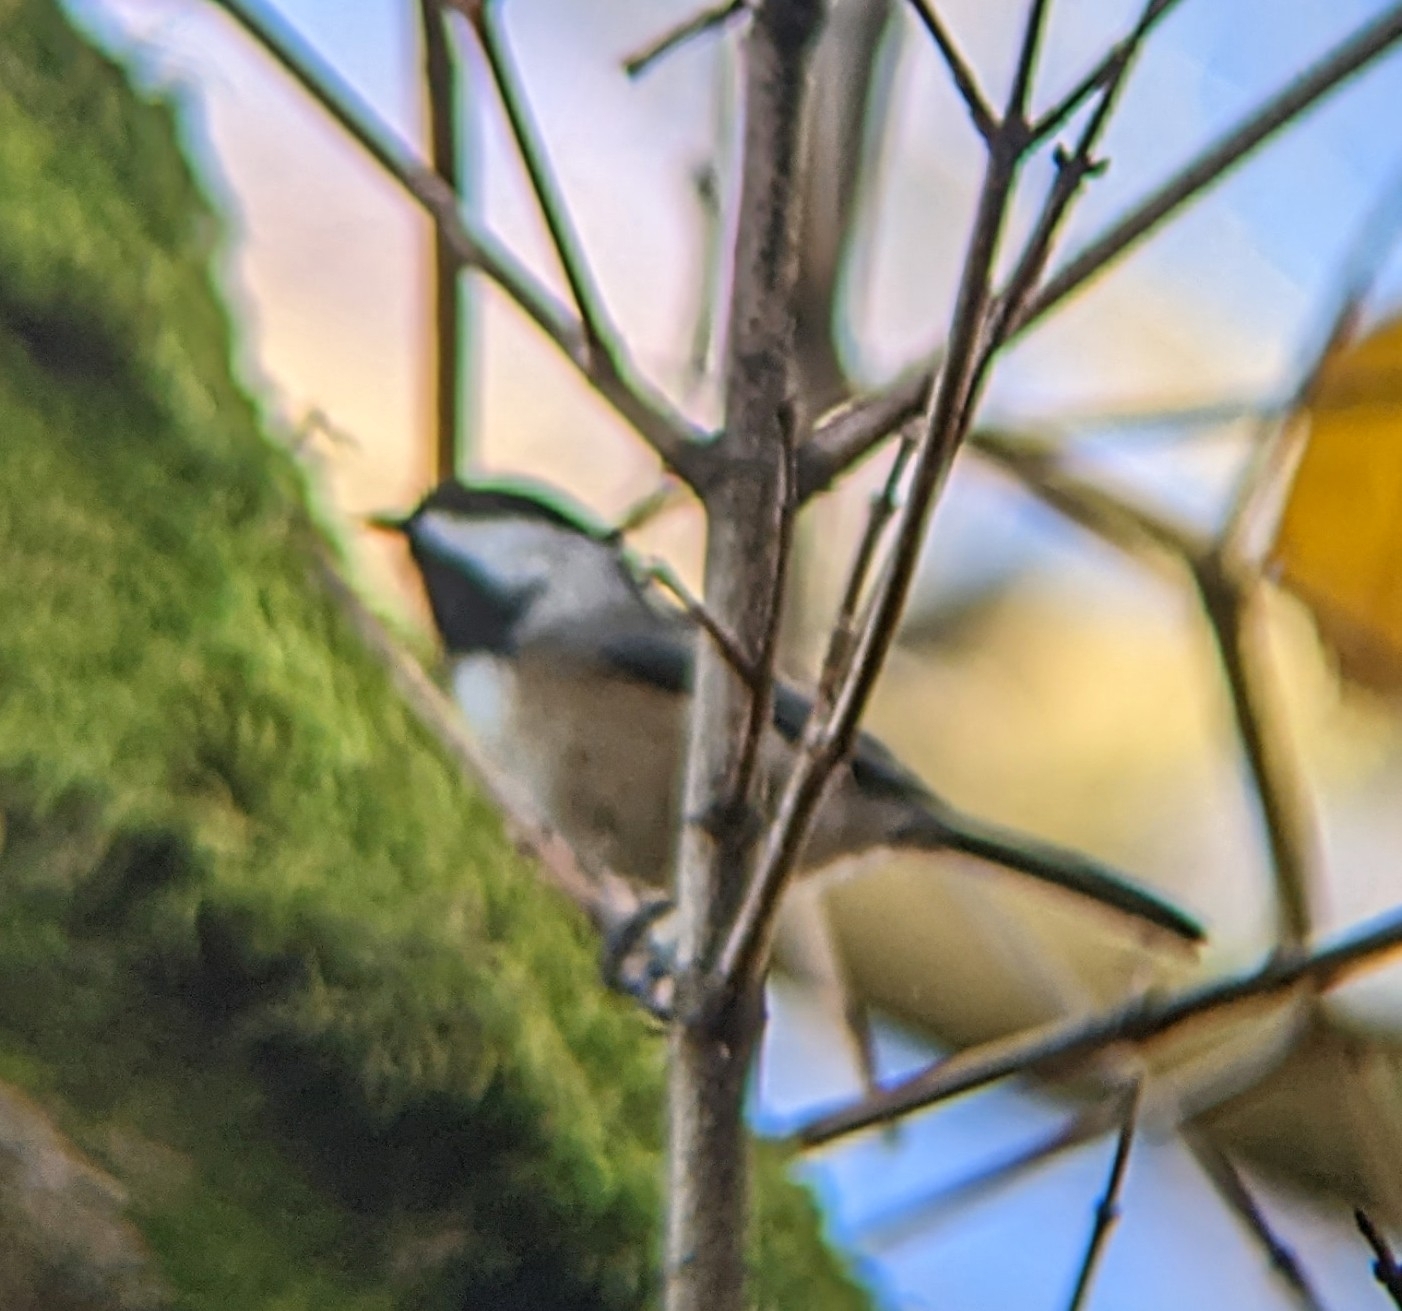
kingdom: Animalia
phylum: Chordata
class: Aves
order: Passeriformes
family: Paridae
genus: Poecile
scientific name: Poecile atricapillus
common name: Black-capped chickadee
